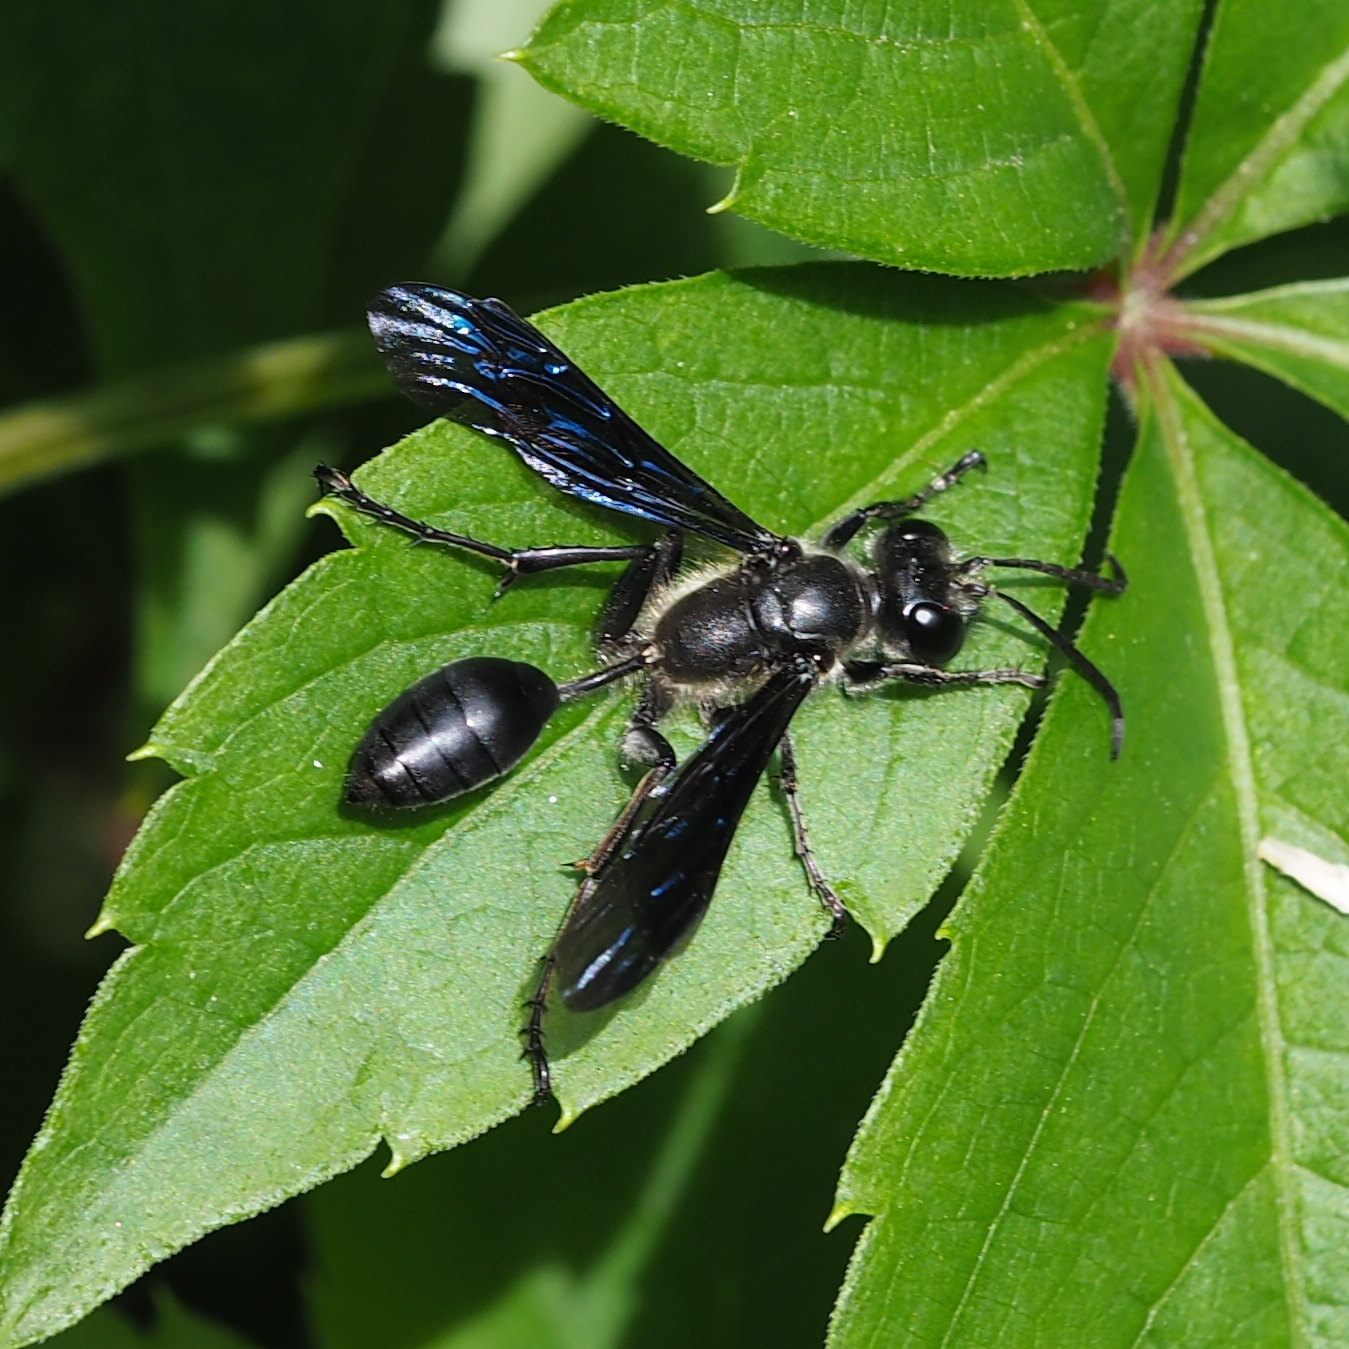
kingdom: Animalia
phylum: Arthropoda
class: Insecta
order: Hymenoptera
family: Sphecidae
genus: Isodontia
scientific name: Isodontia mexicana
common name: Mud dauber
